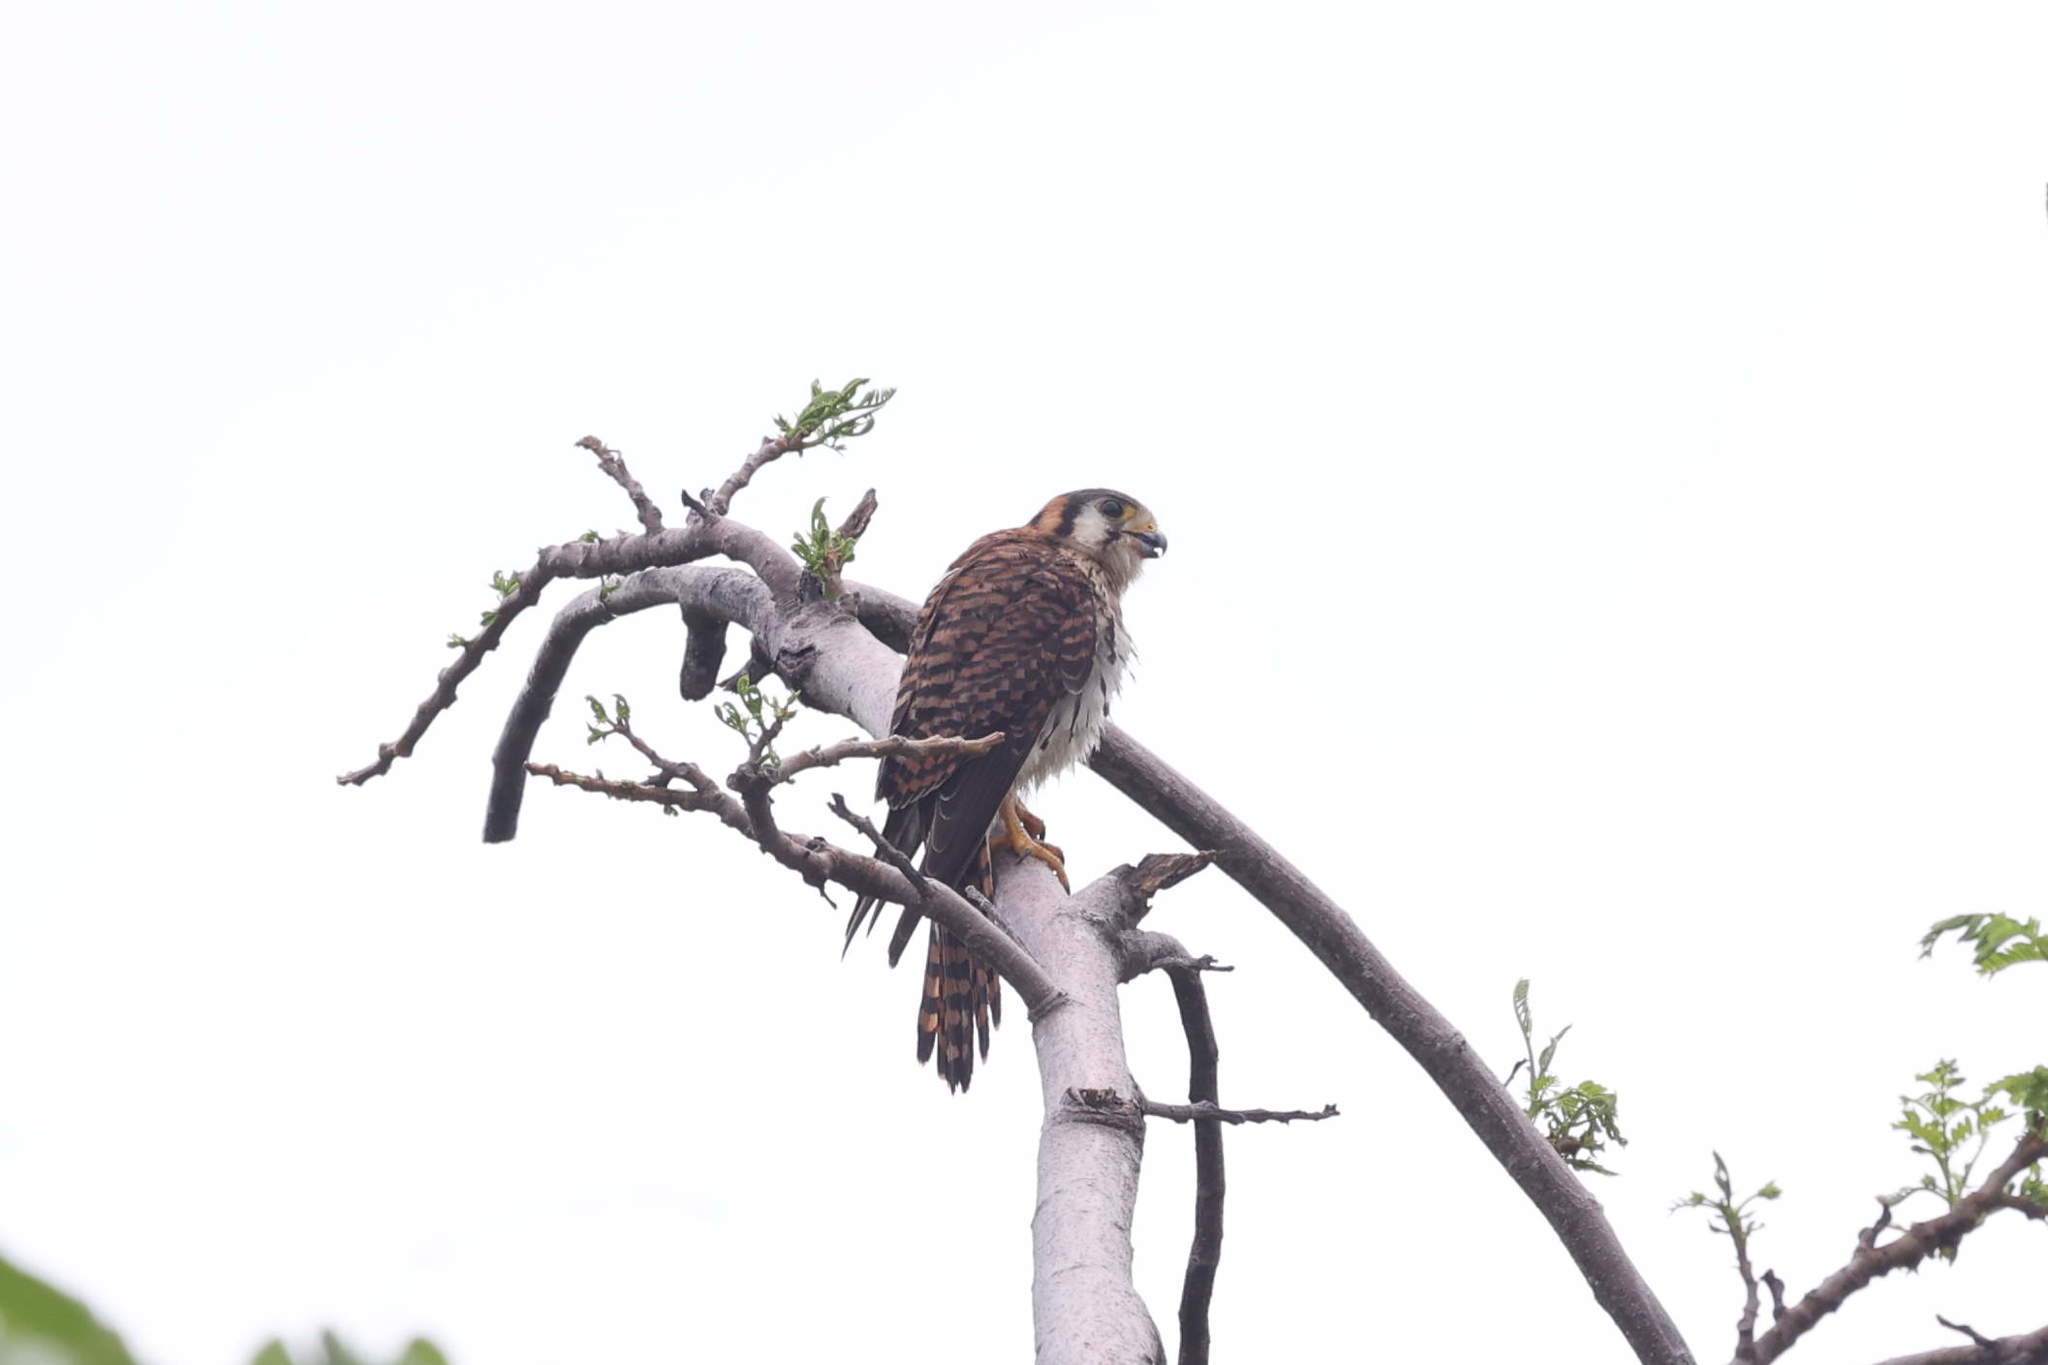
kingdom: Animalia
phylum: Chordata
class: Aves
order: Falconiformes
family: Falconidae
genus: Falco
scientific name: Falco sparverius
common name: American kestrel
